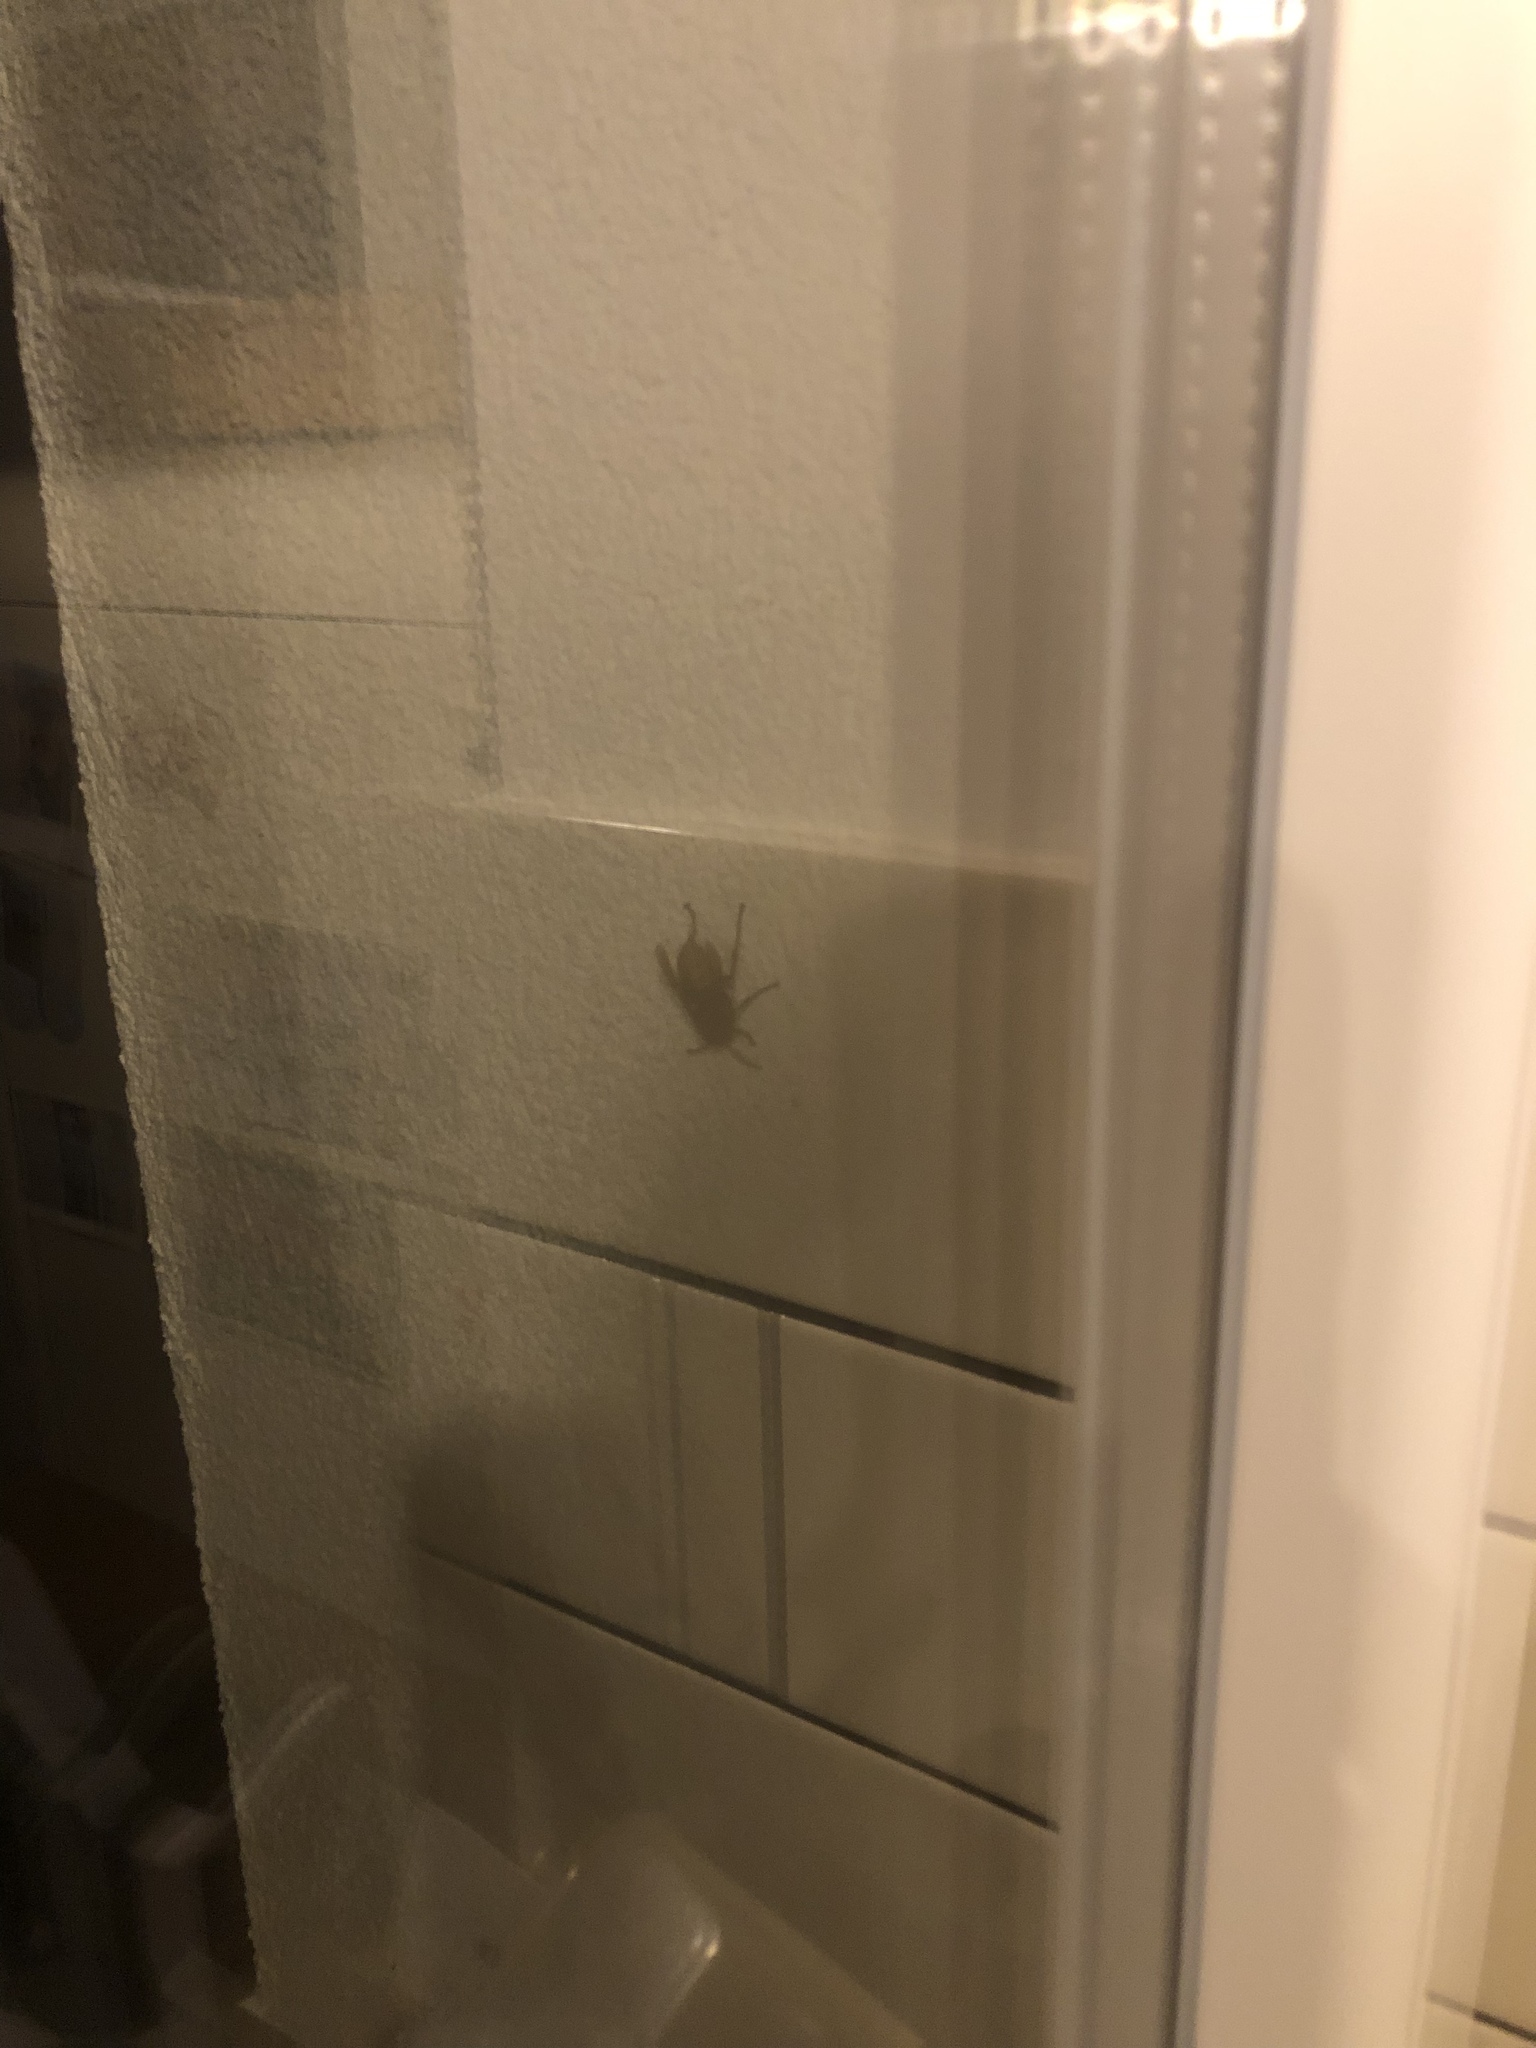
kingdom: Animalia
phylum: Arthropoda
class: Insecta
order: Hymenoptera
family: Vespidae
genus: Vespa
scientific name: Vespa crabro
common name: Hornet
